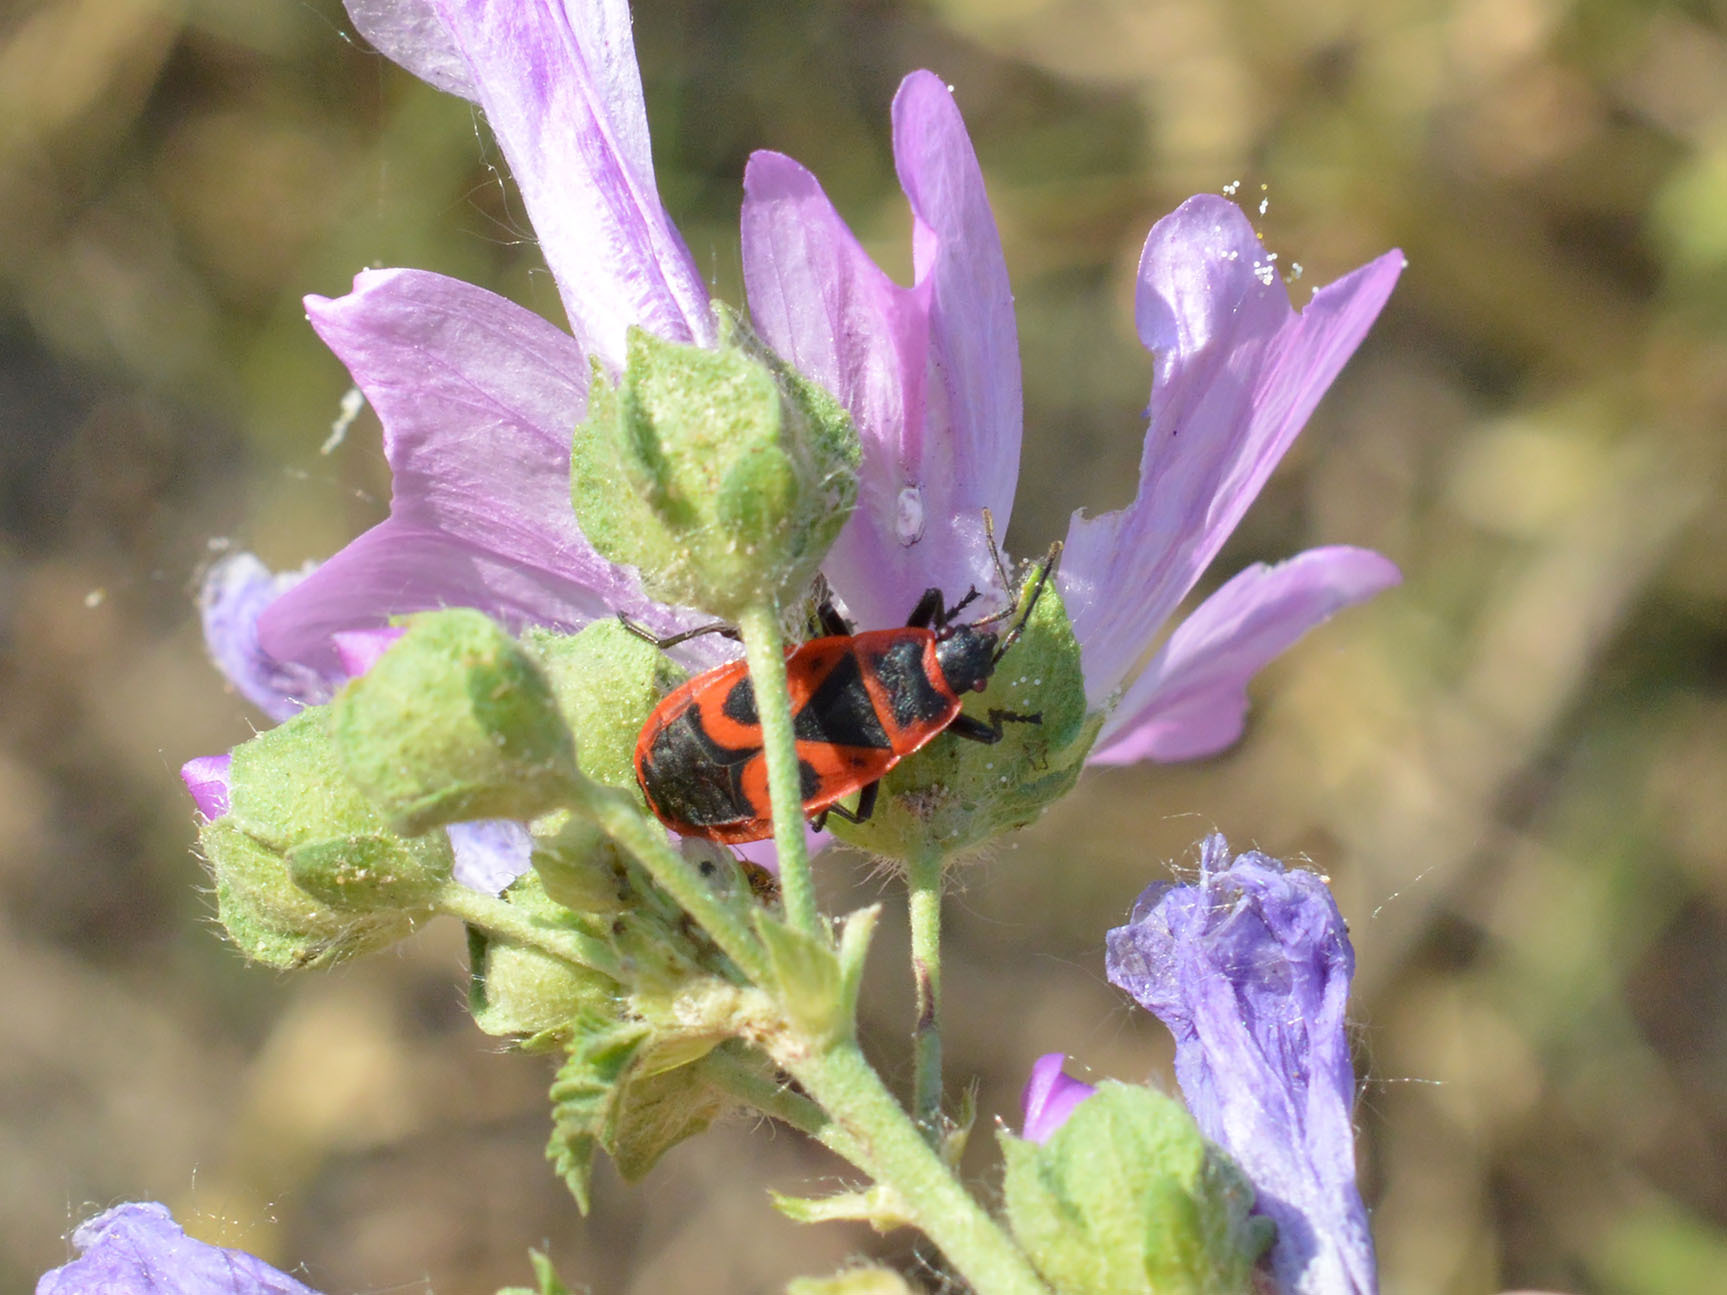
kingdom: Animalia
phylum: Arthropoda
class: Insecta
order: Hemiptera
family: Pyrrhocoridae
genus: Pyrrhocoris
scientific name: Pyrrhocoris apterus
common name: Firebug
